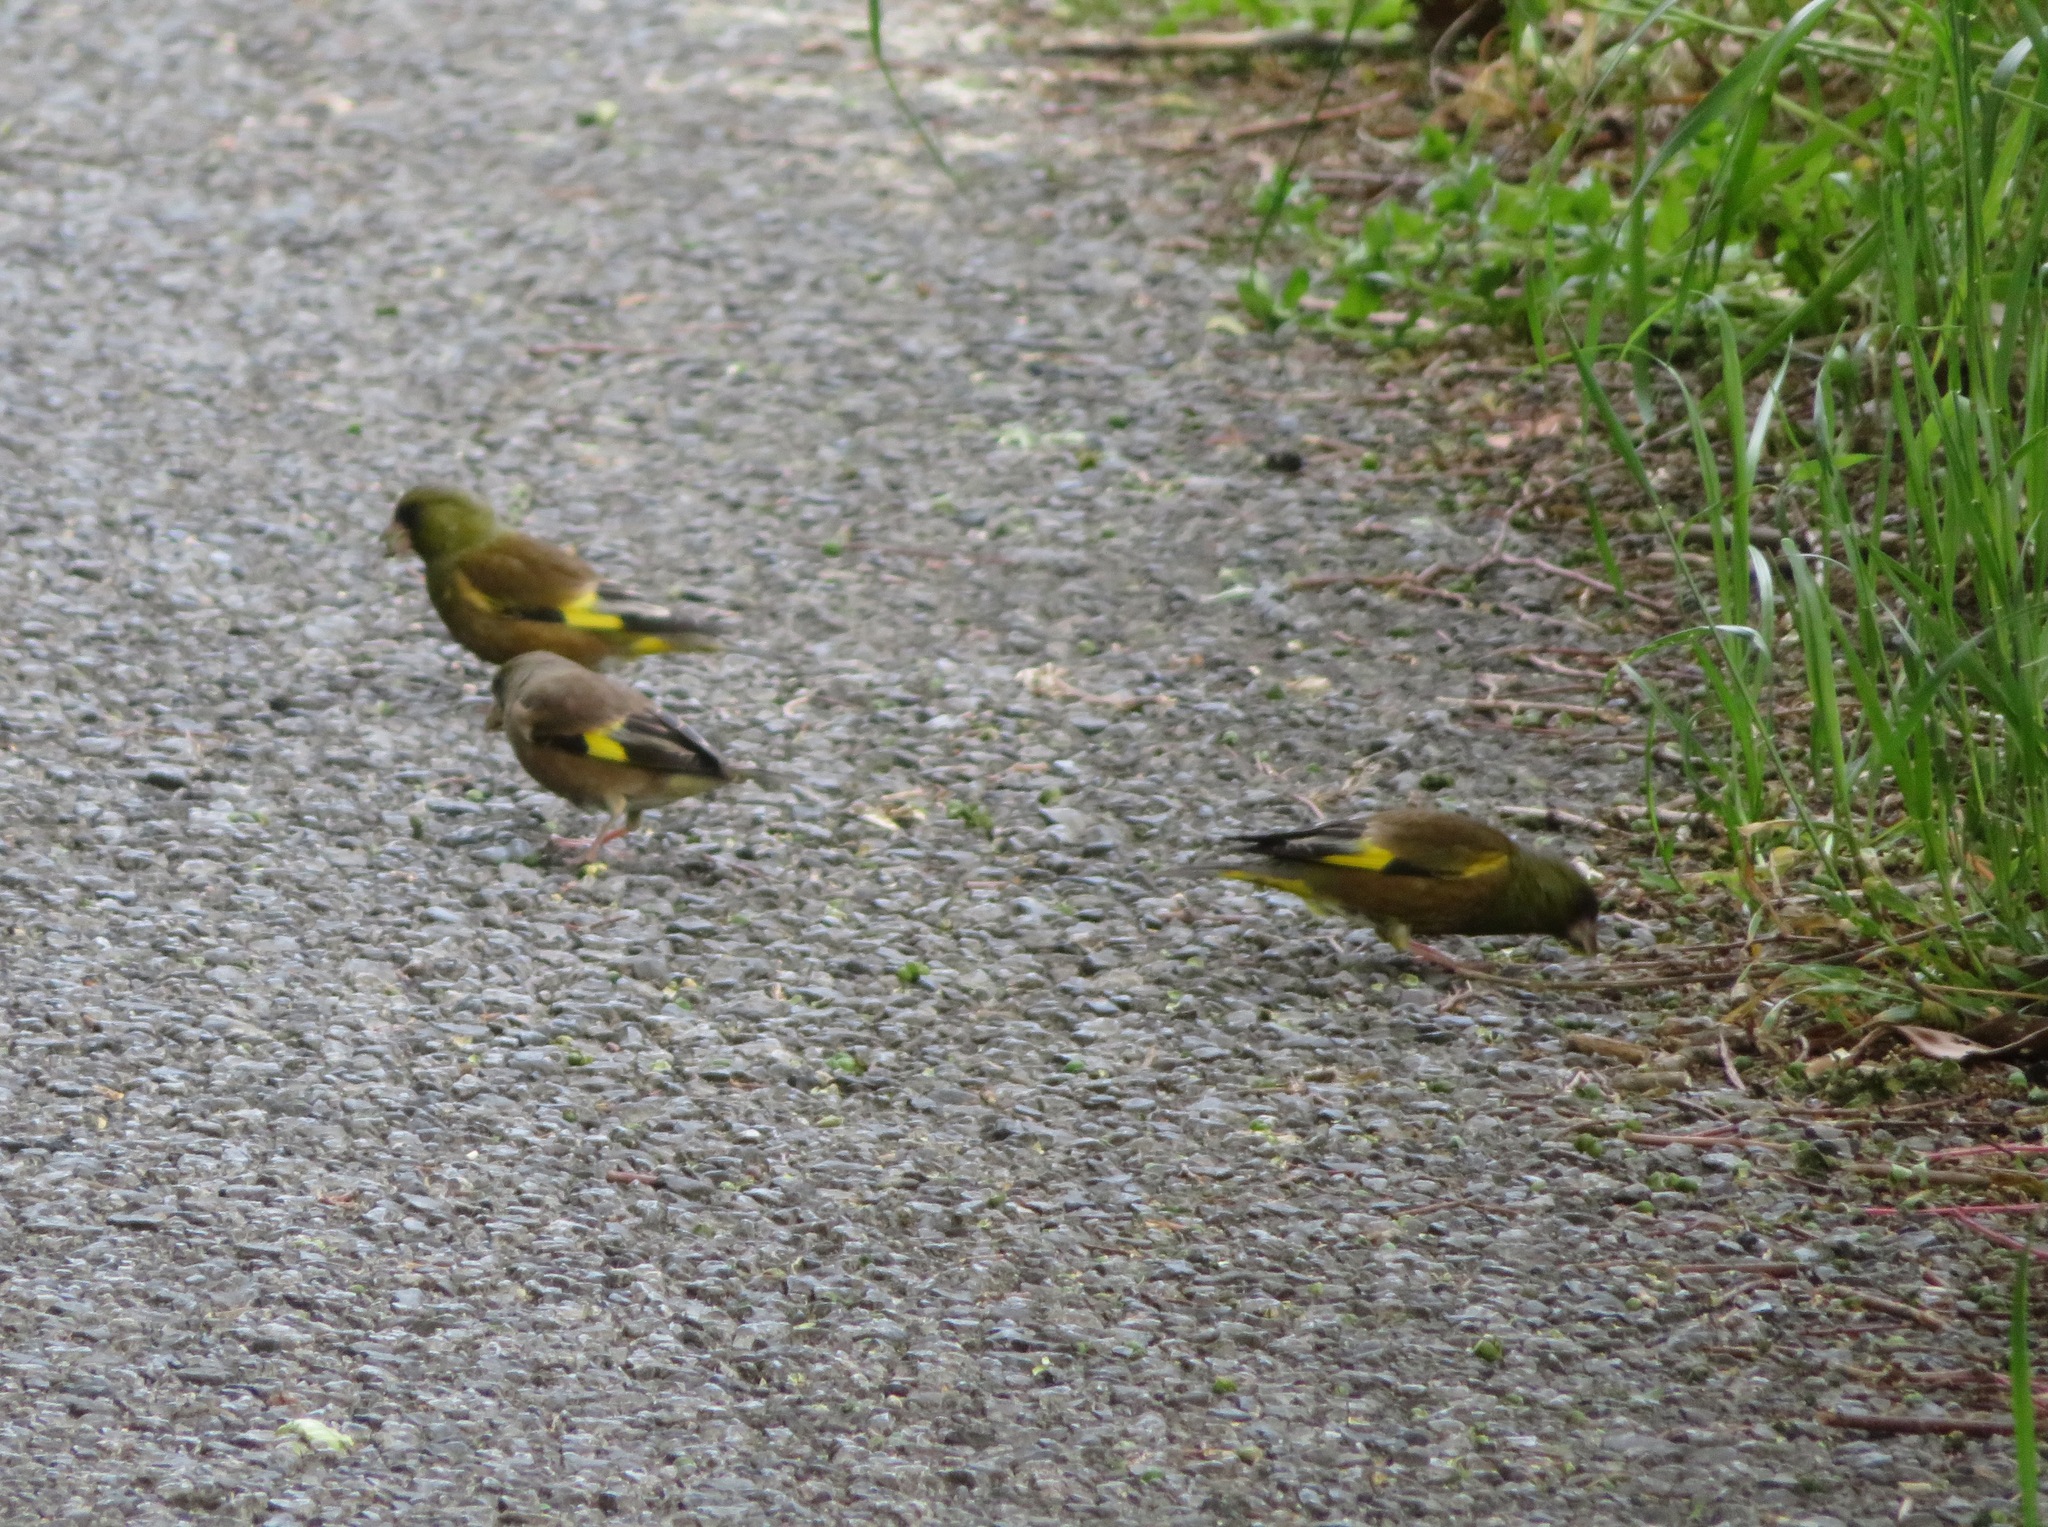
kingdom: Plantae
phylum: Tracheophyta
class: Liliopsida
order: Poales
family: Poaceae
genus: Chloris
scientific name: Chloris sinica
